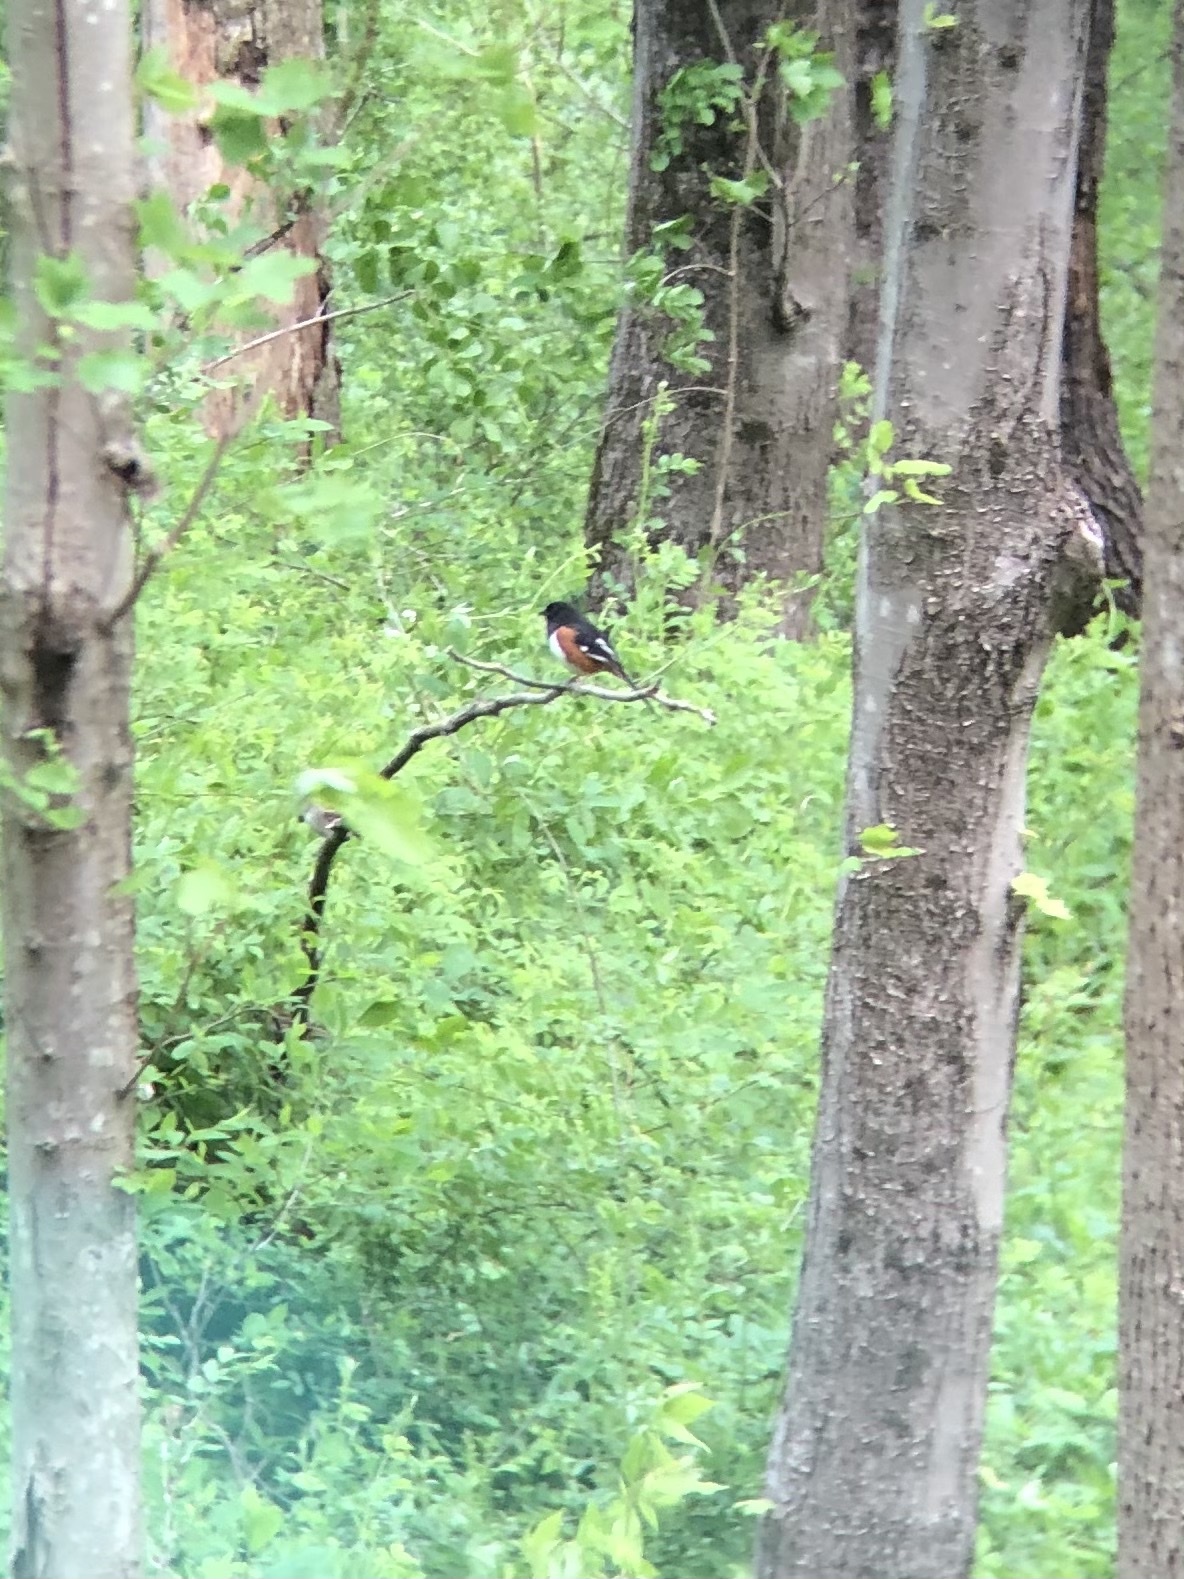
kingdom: Animalia
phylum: Chordata
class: Aves
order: Passeriformes
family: Passerellidae
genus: Pipilo
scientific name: Pipilo erythrophthalmus
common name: Eastern towhee
